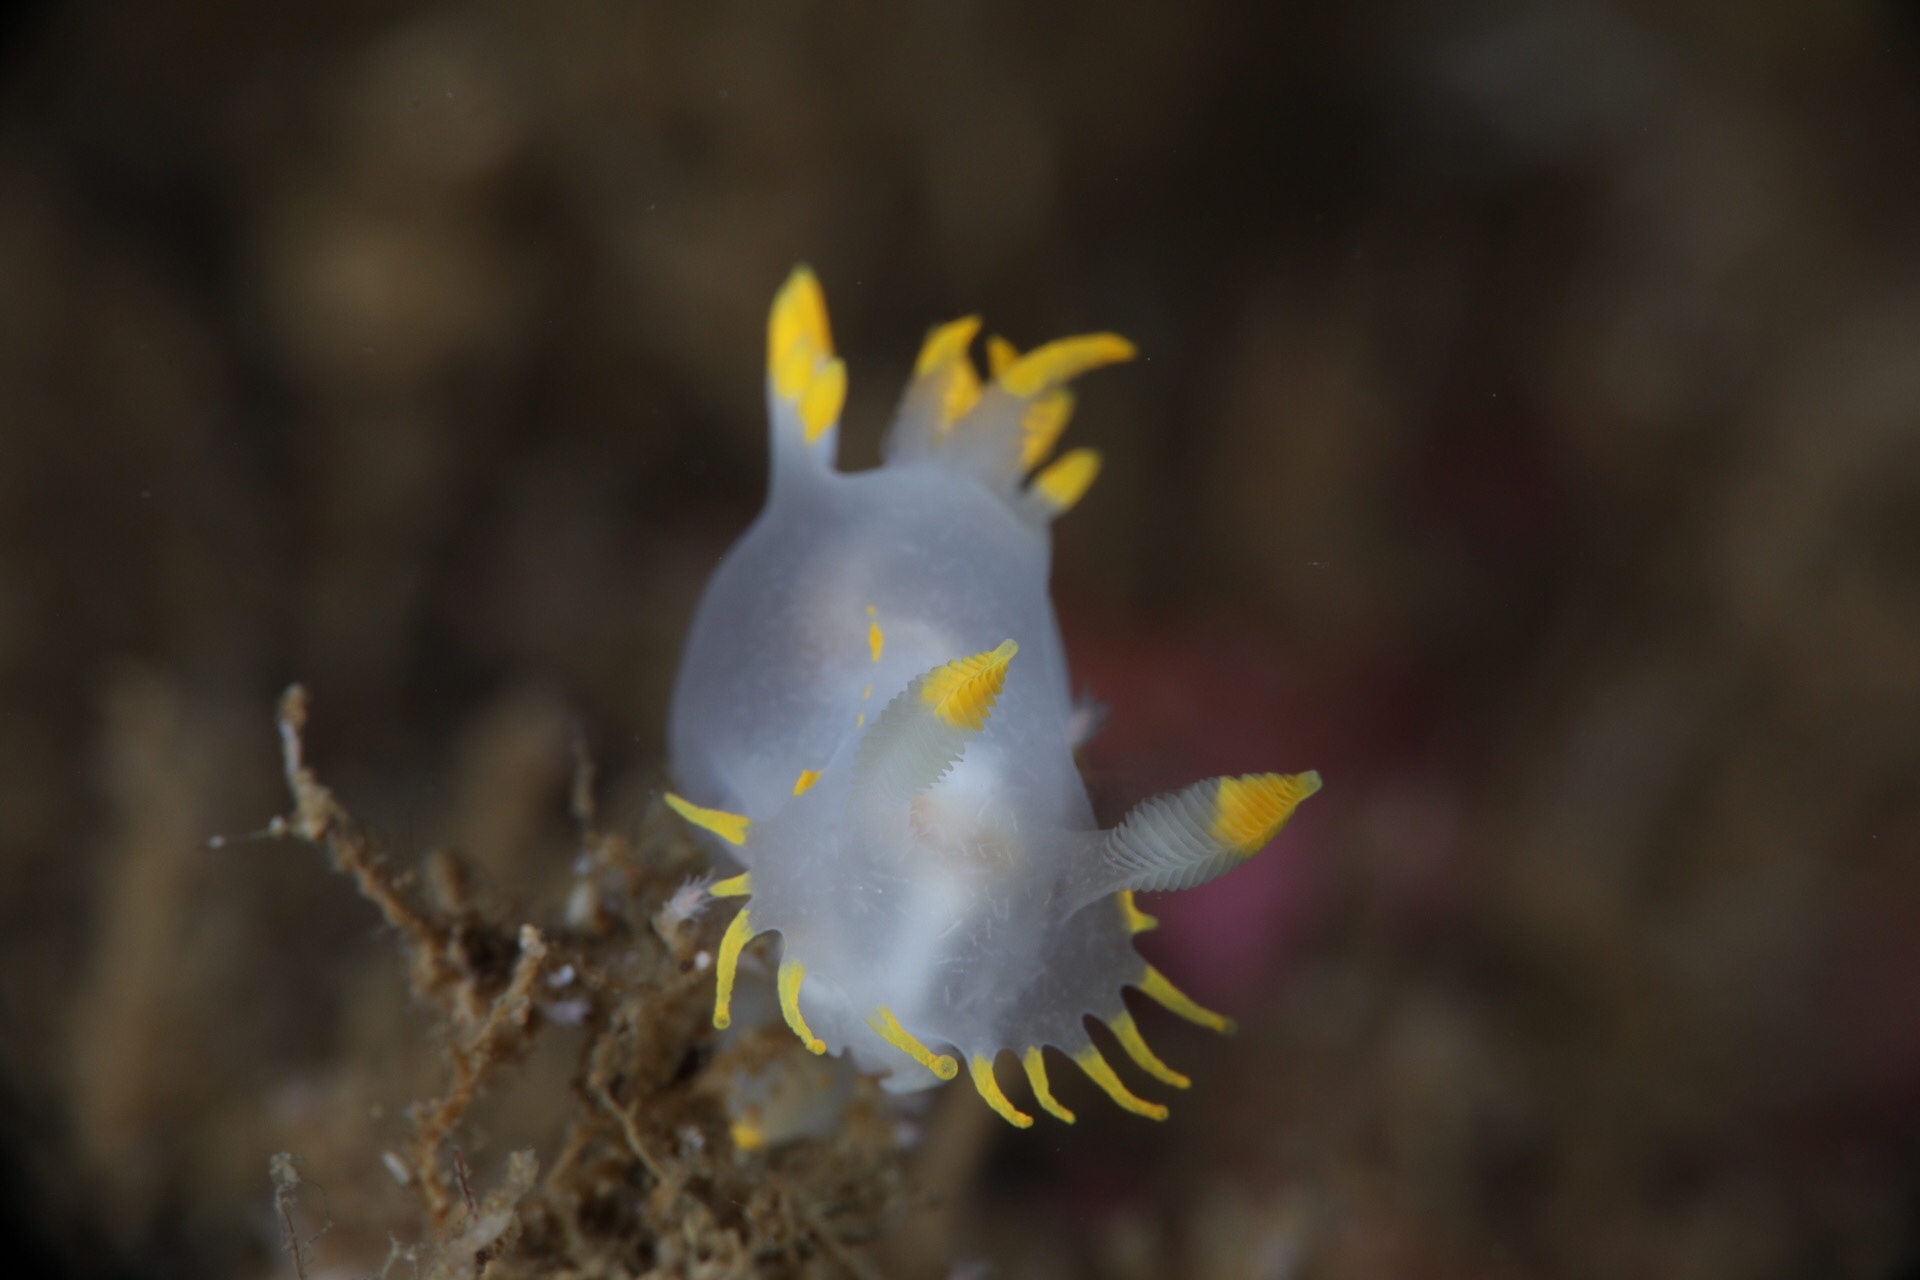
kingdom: Animalia
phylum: Mollusca
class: Gastropoda
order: Nudibranchia
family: Polyceridae
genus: Polycera
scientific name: Polycera faeroensis
